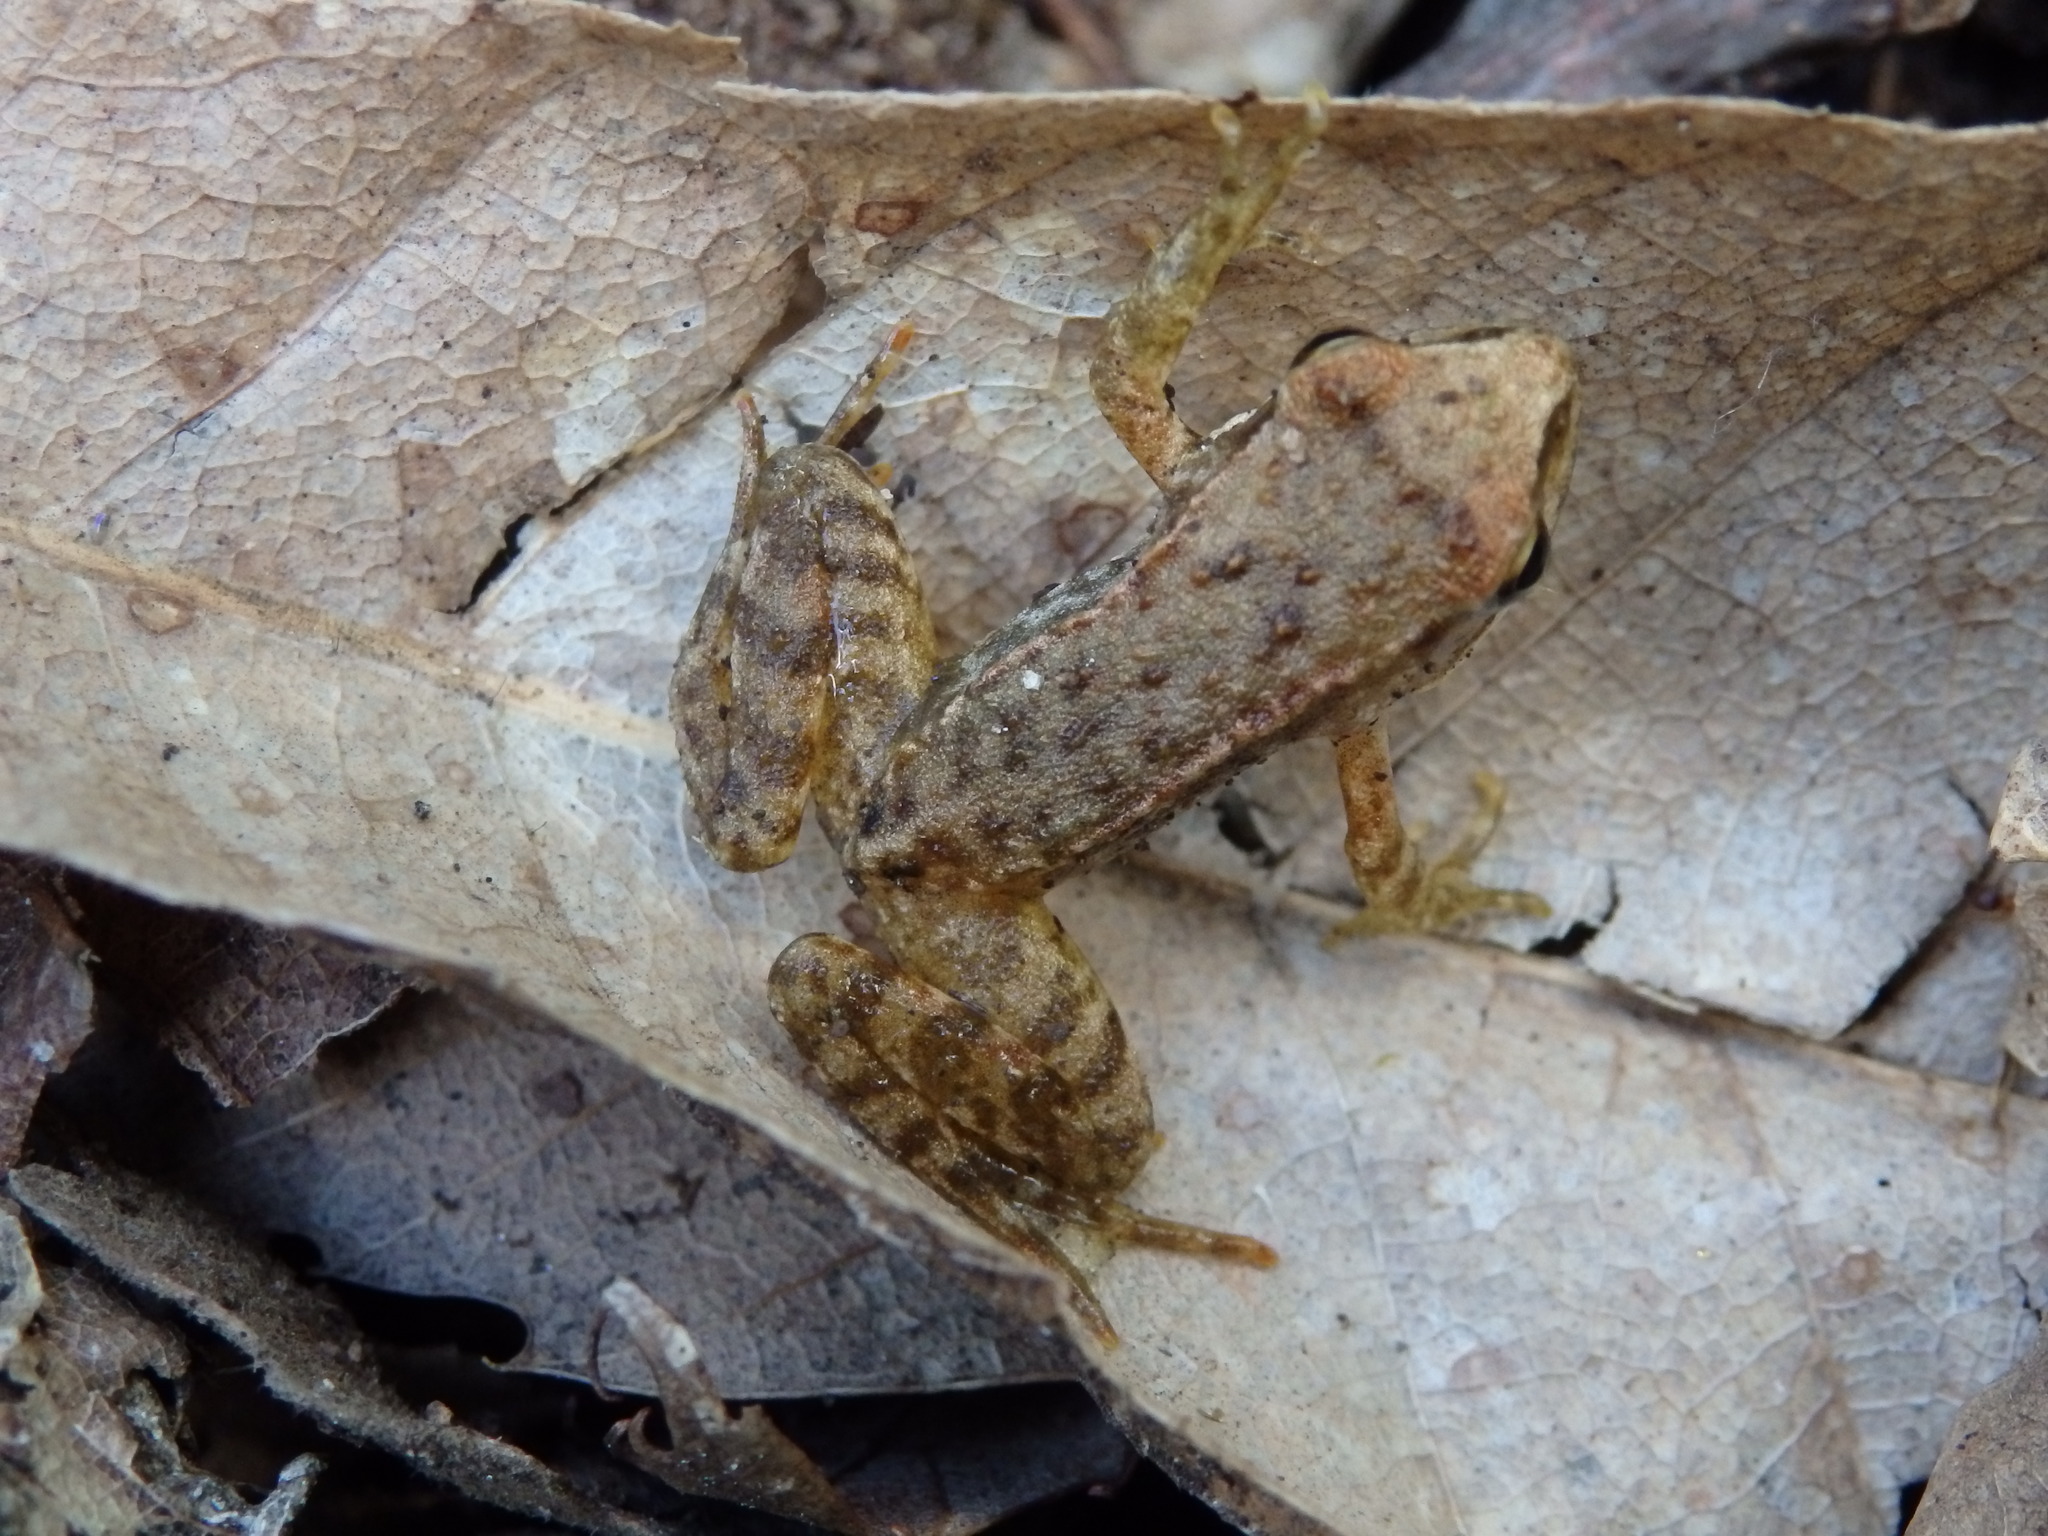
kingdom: Animalia
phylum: Chordata
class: Amphibia
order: Anura
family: Ranidae
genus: Rana
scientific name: Rana iberica
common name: Iberian frog
